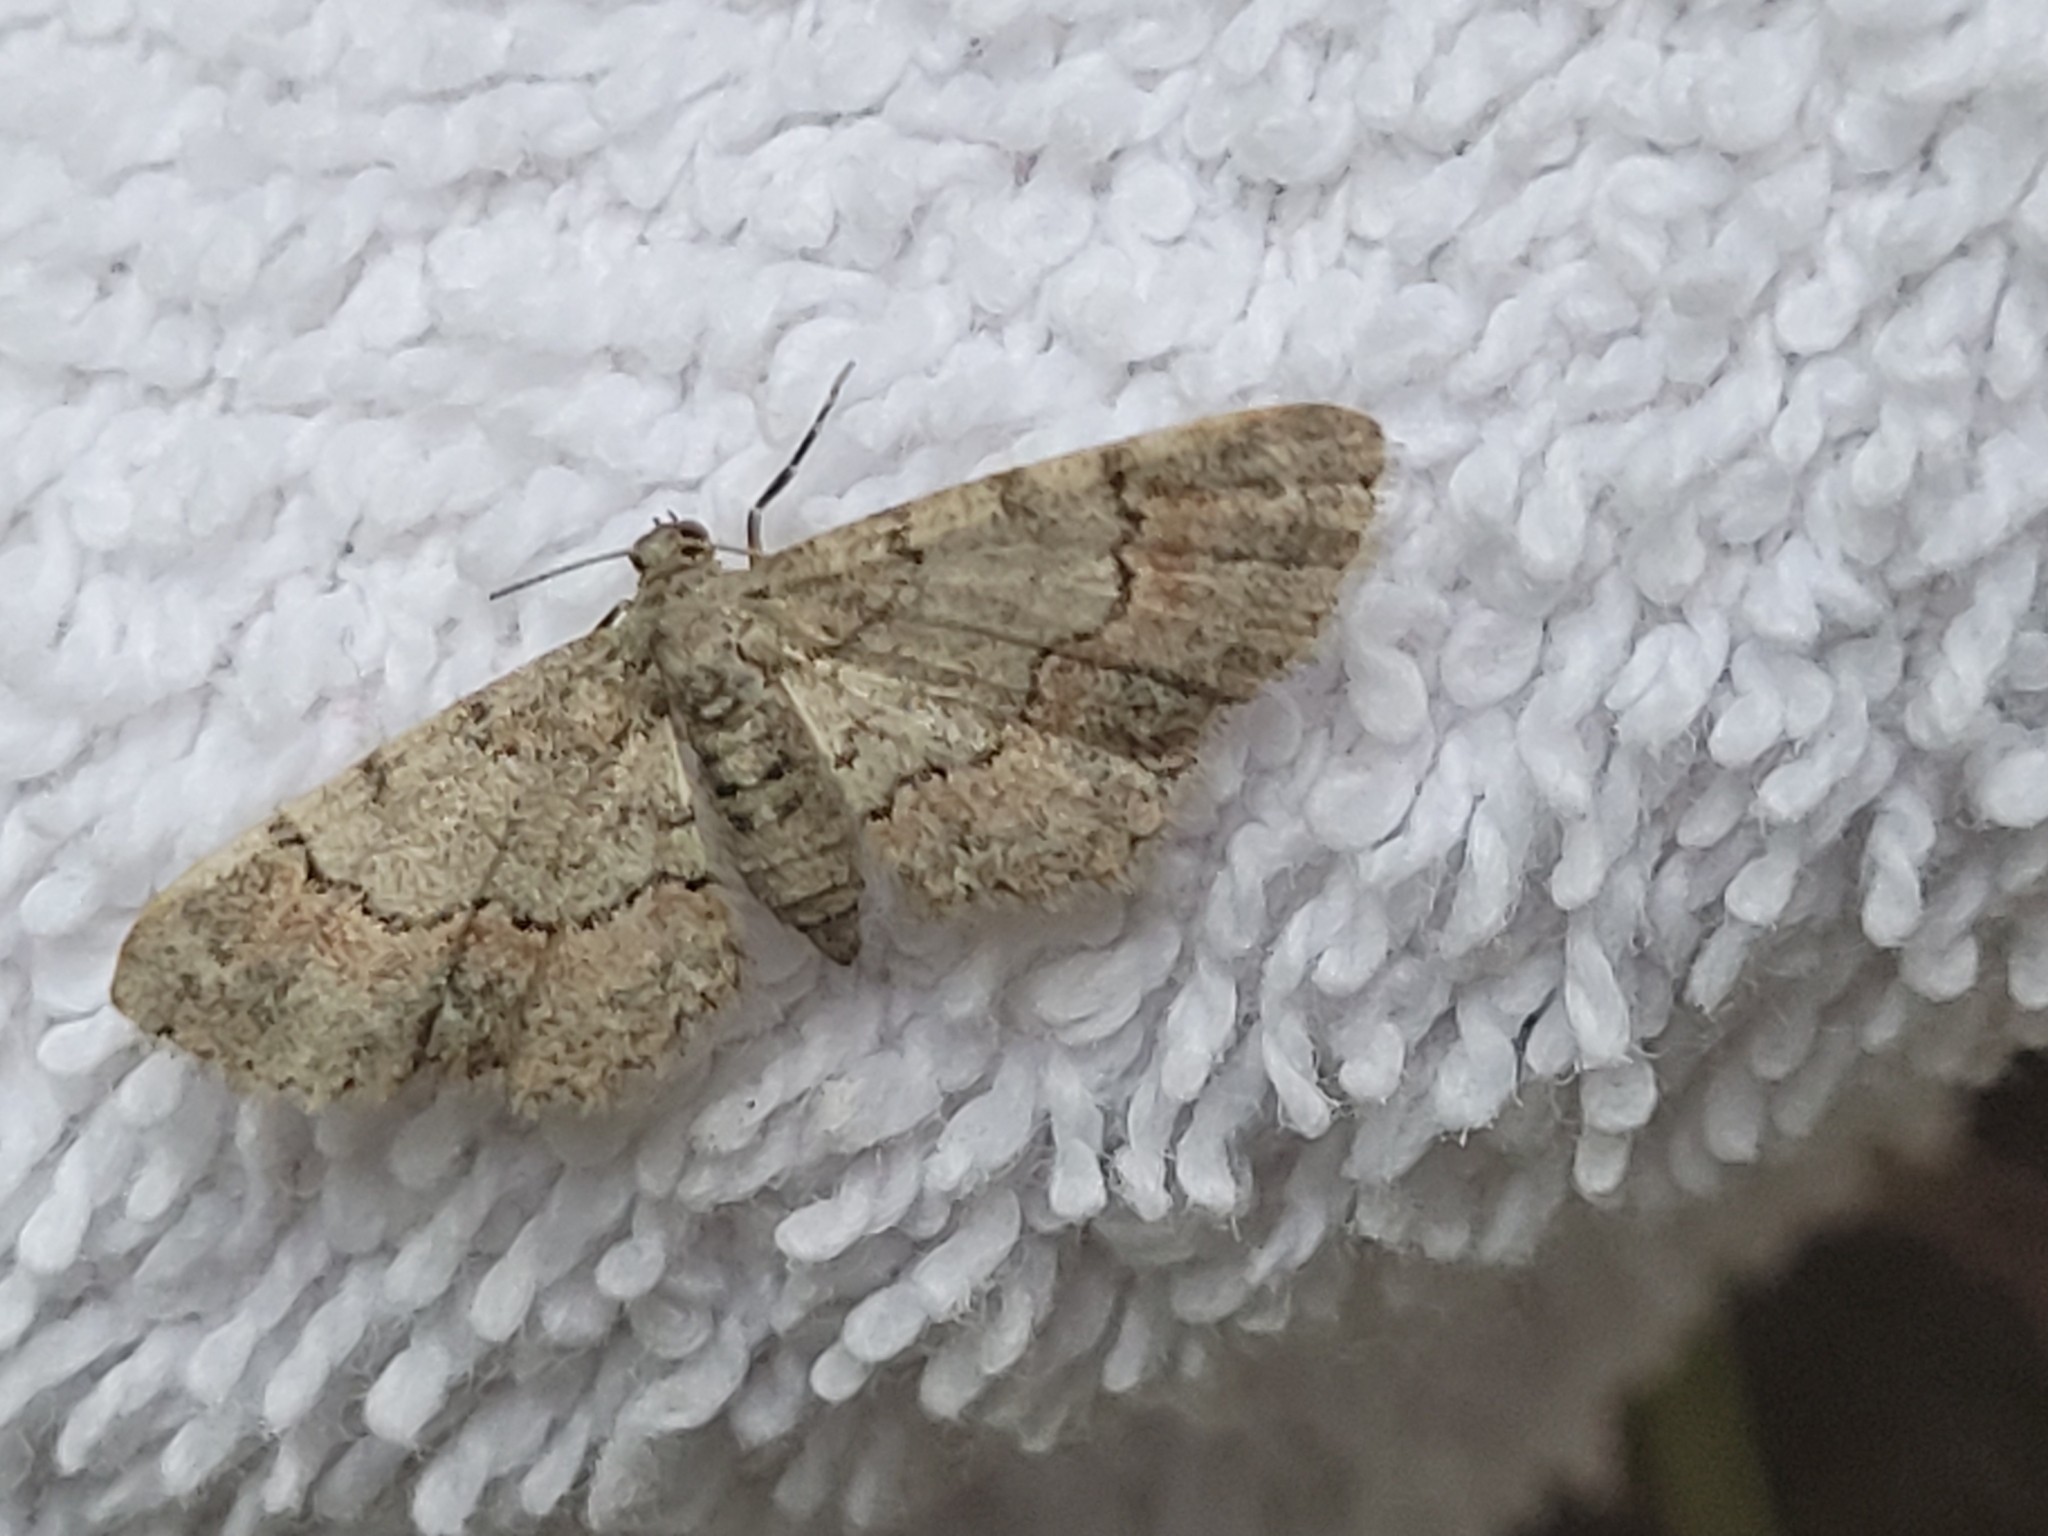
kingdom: Animalia
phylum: Arthropoda
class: Insecta
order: Lepidoptera
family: Geometridae
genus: Glenoides
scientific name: Glenoides texanaria
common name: Texas gray
